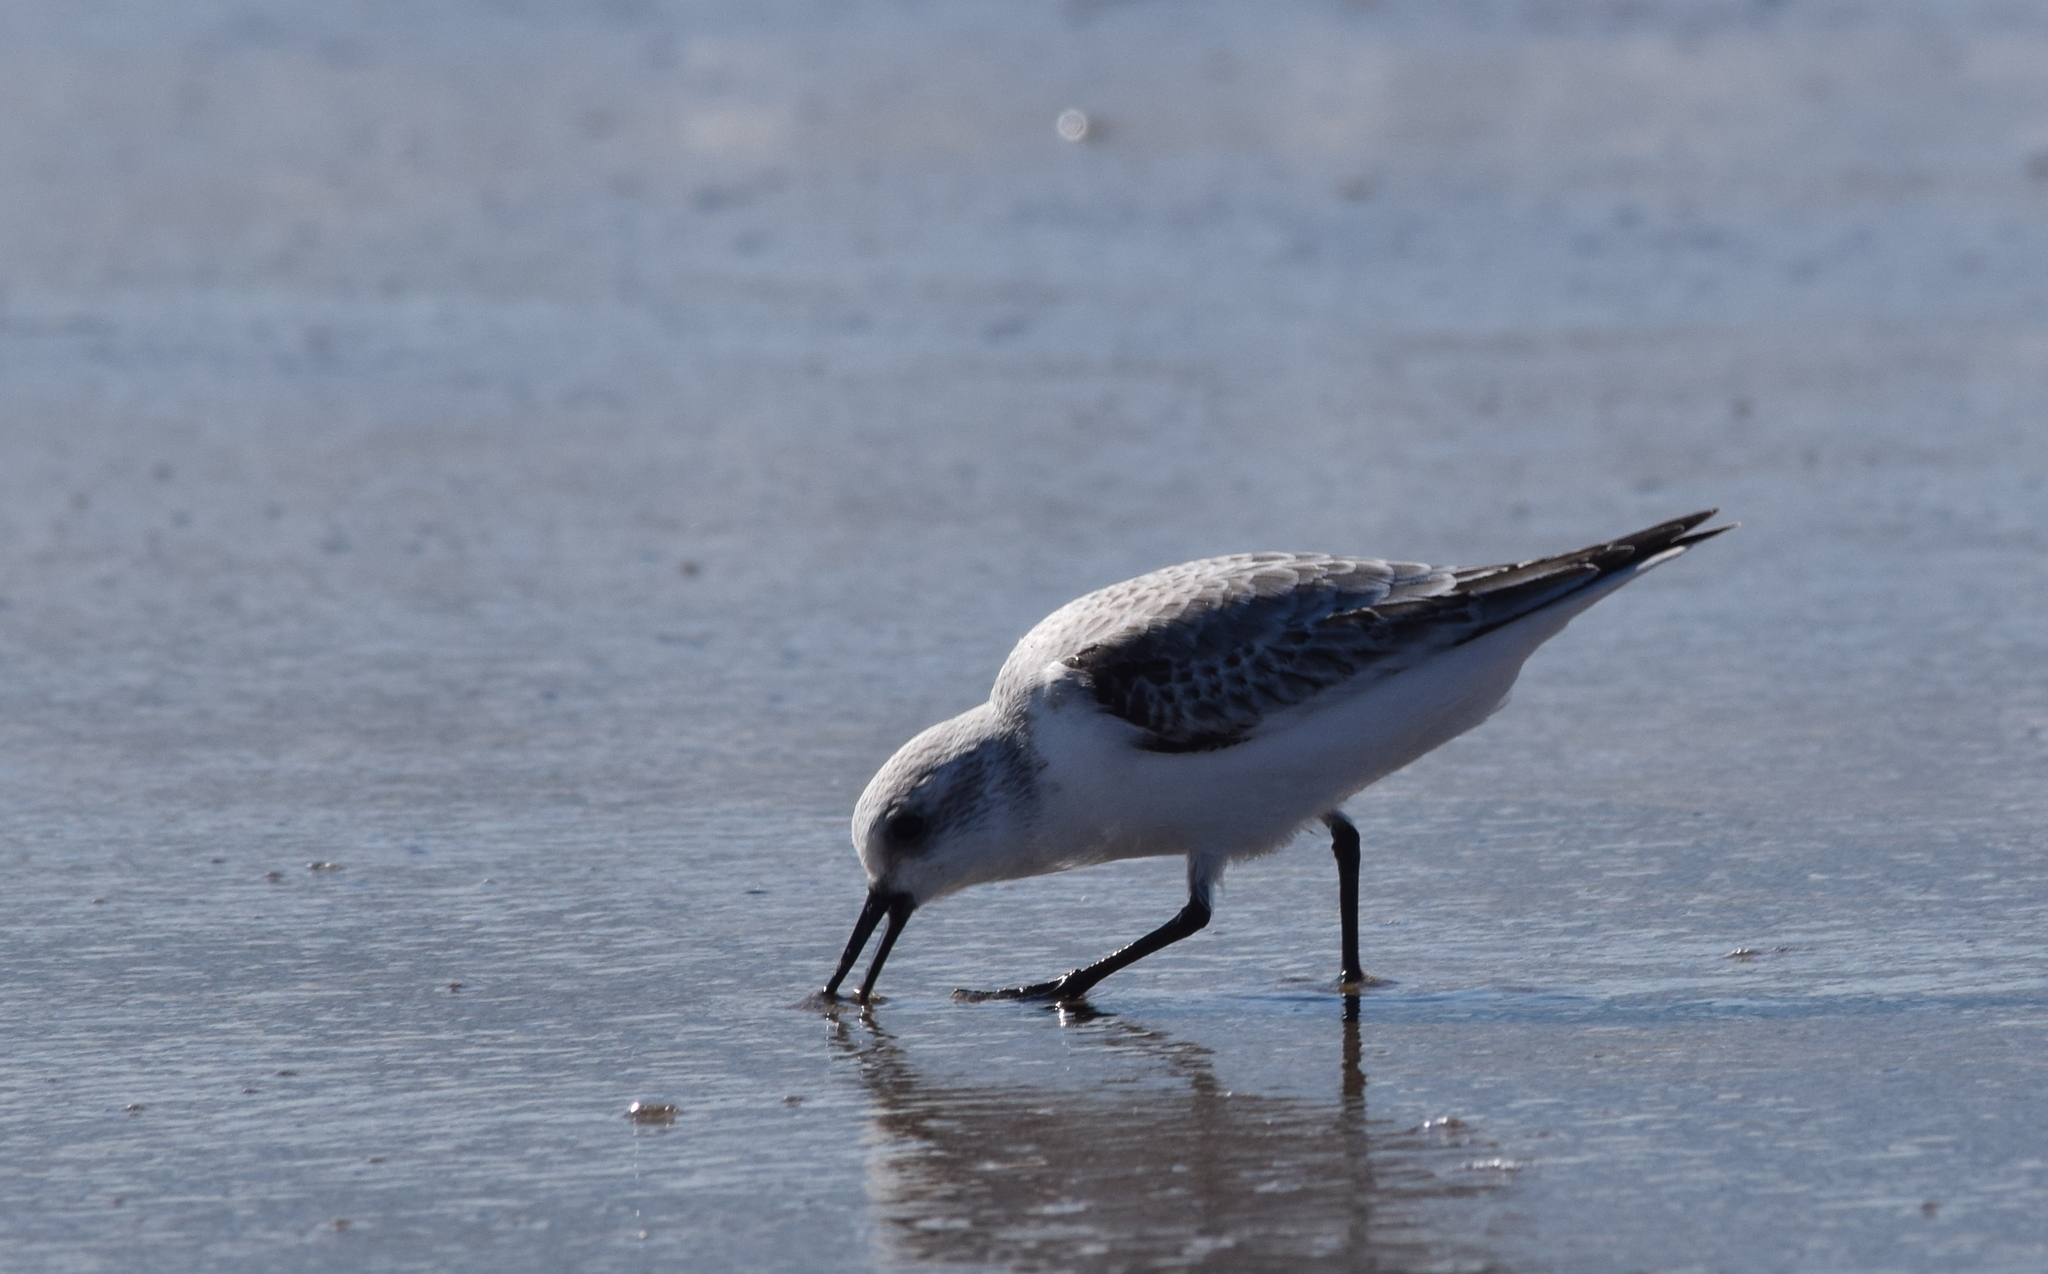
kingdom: Animalia
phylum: Chordata
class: Aves
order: Charadriiformes
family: Scolopacidae
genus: Calidris
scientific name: Calidris alba
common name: Sanderling
